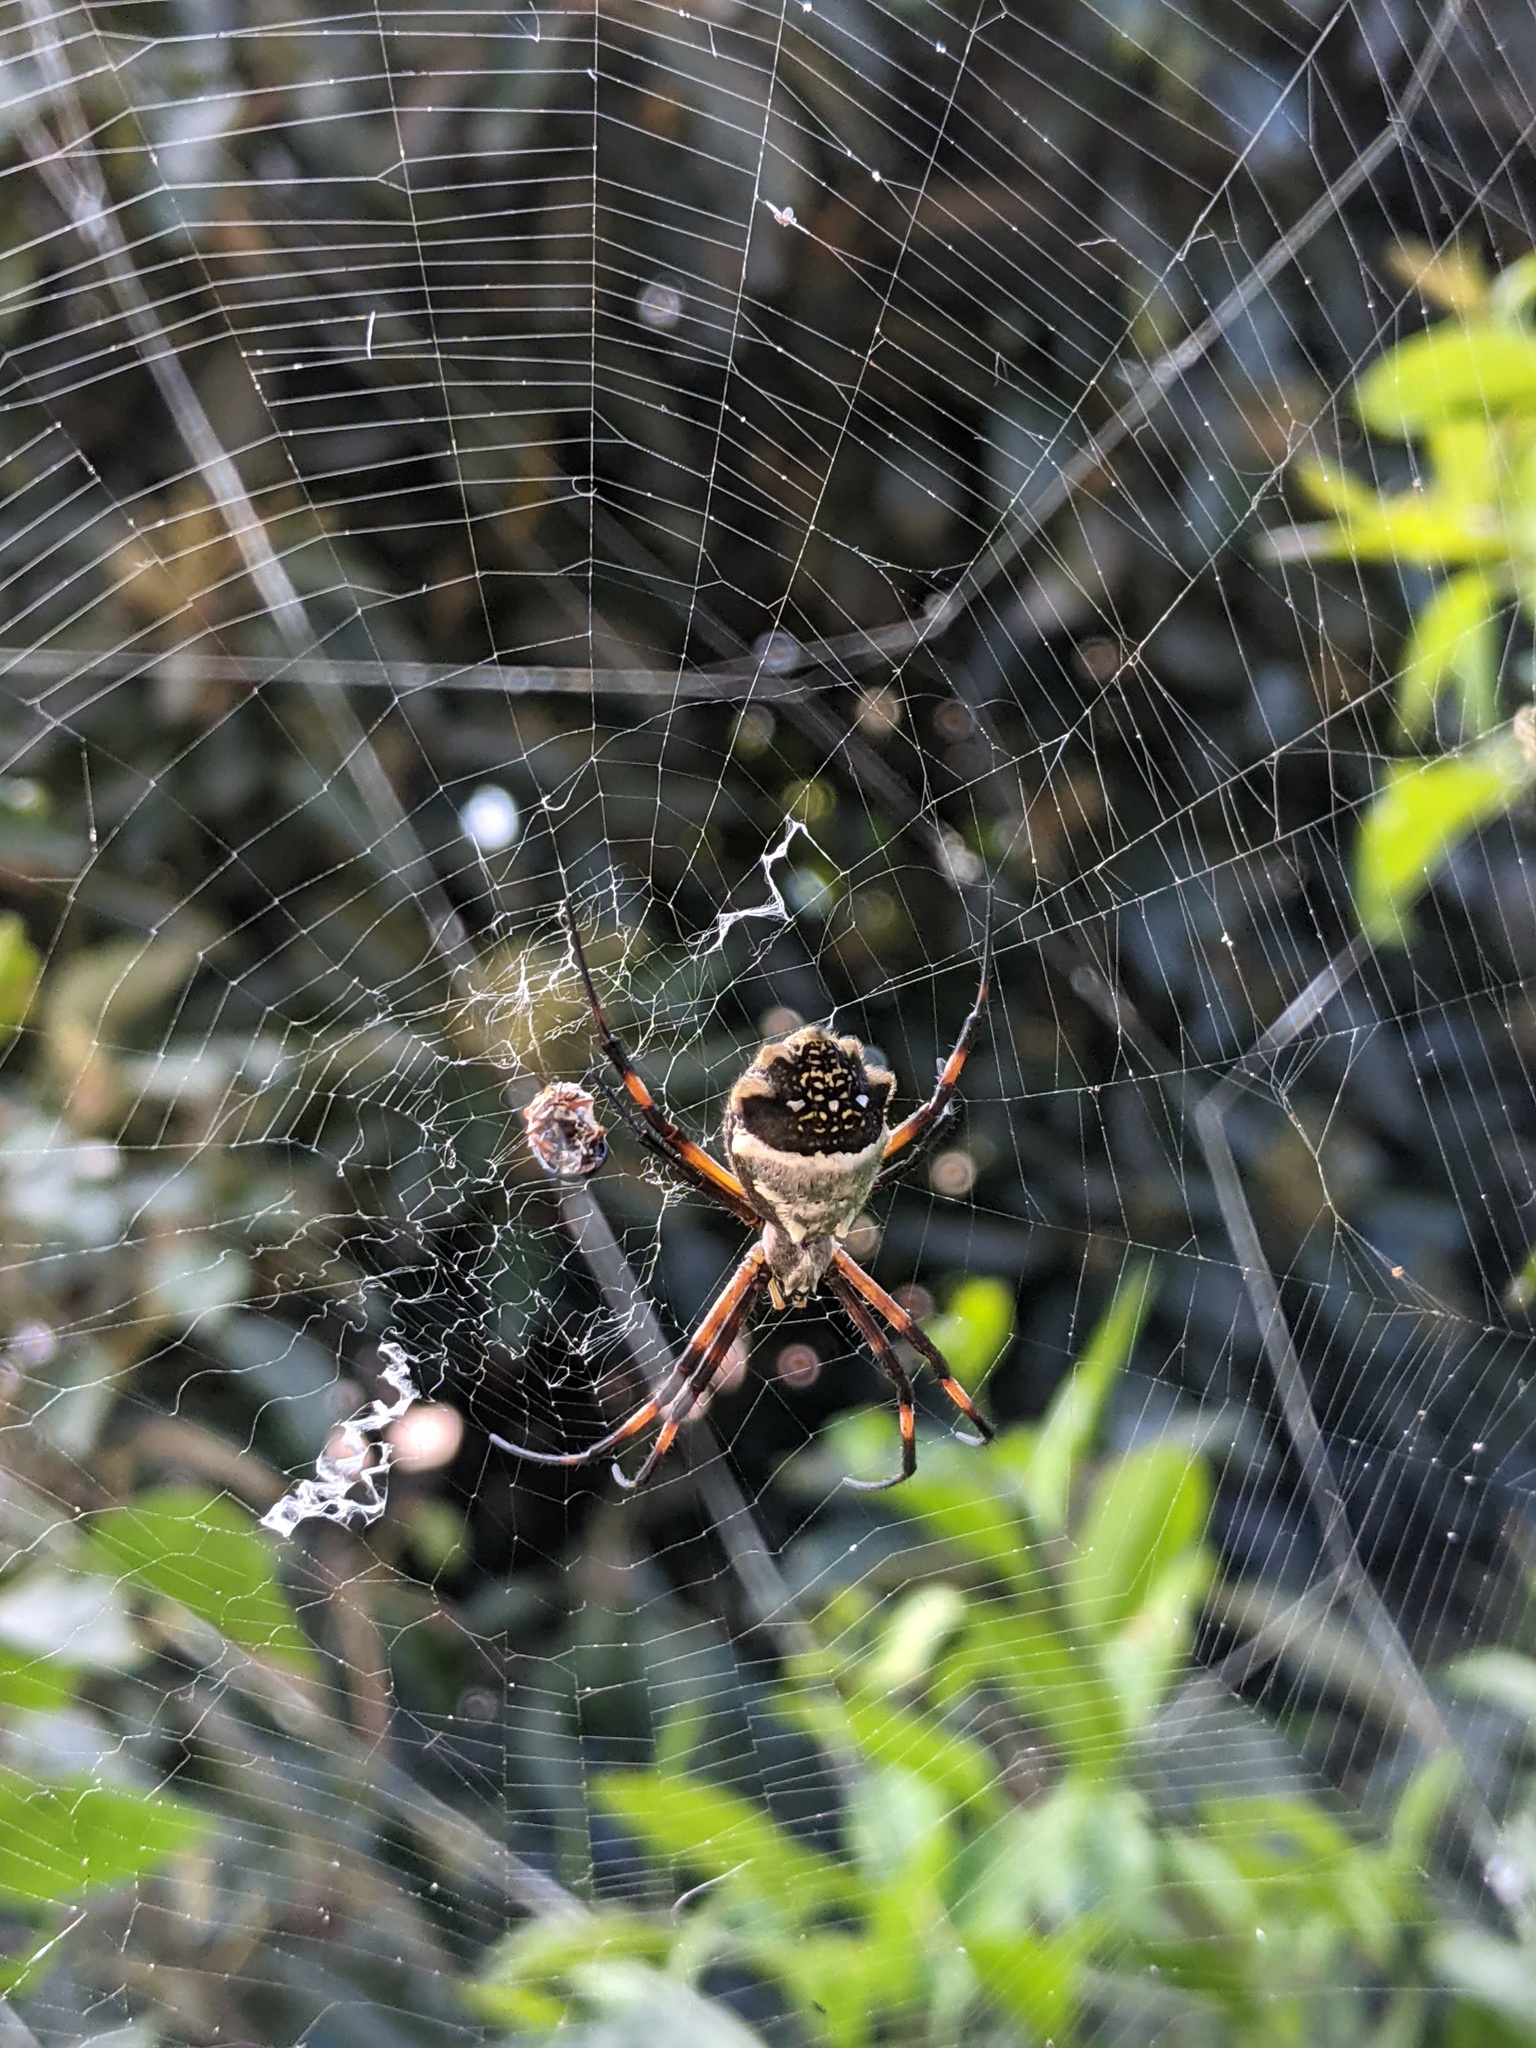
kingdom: Animalia
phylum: Arthropoda
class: Arachnida
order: Araneae
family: Araneidae
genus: Argiope
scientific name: Argiope argentata
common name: Orb weavers
